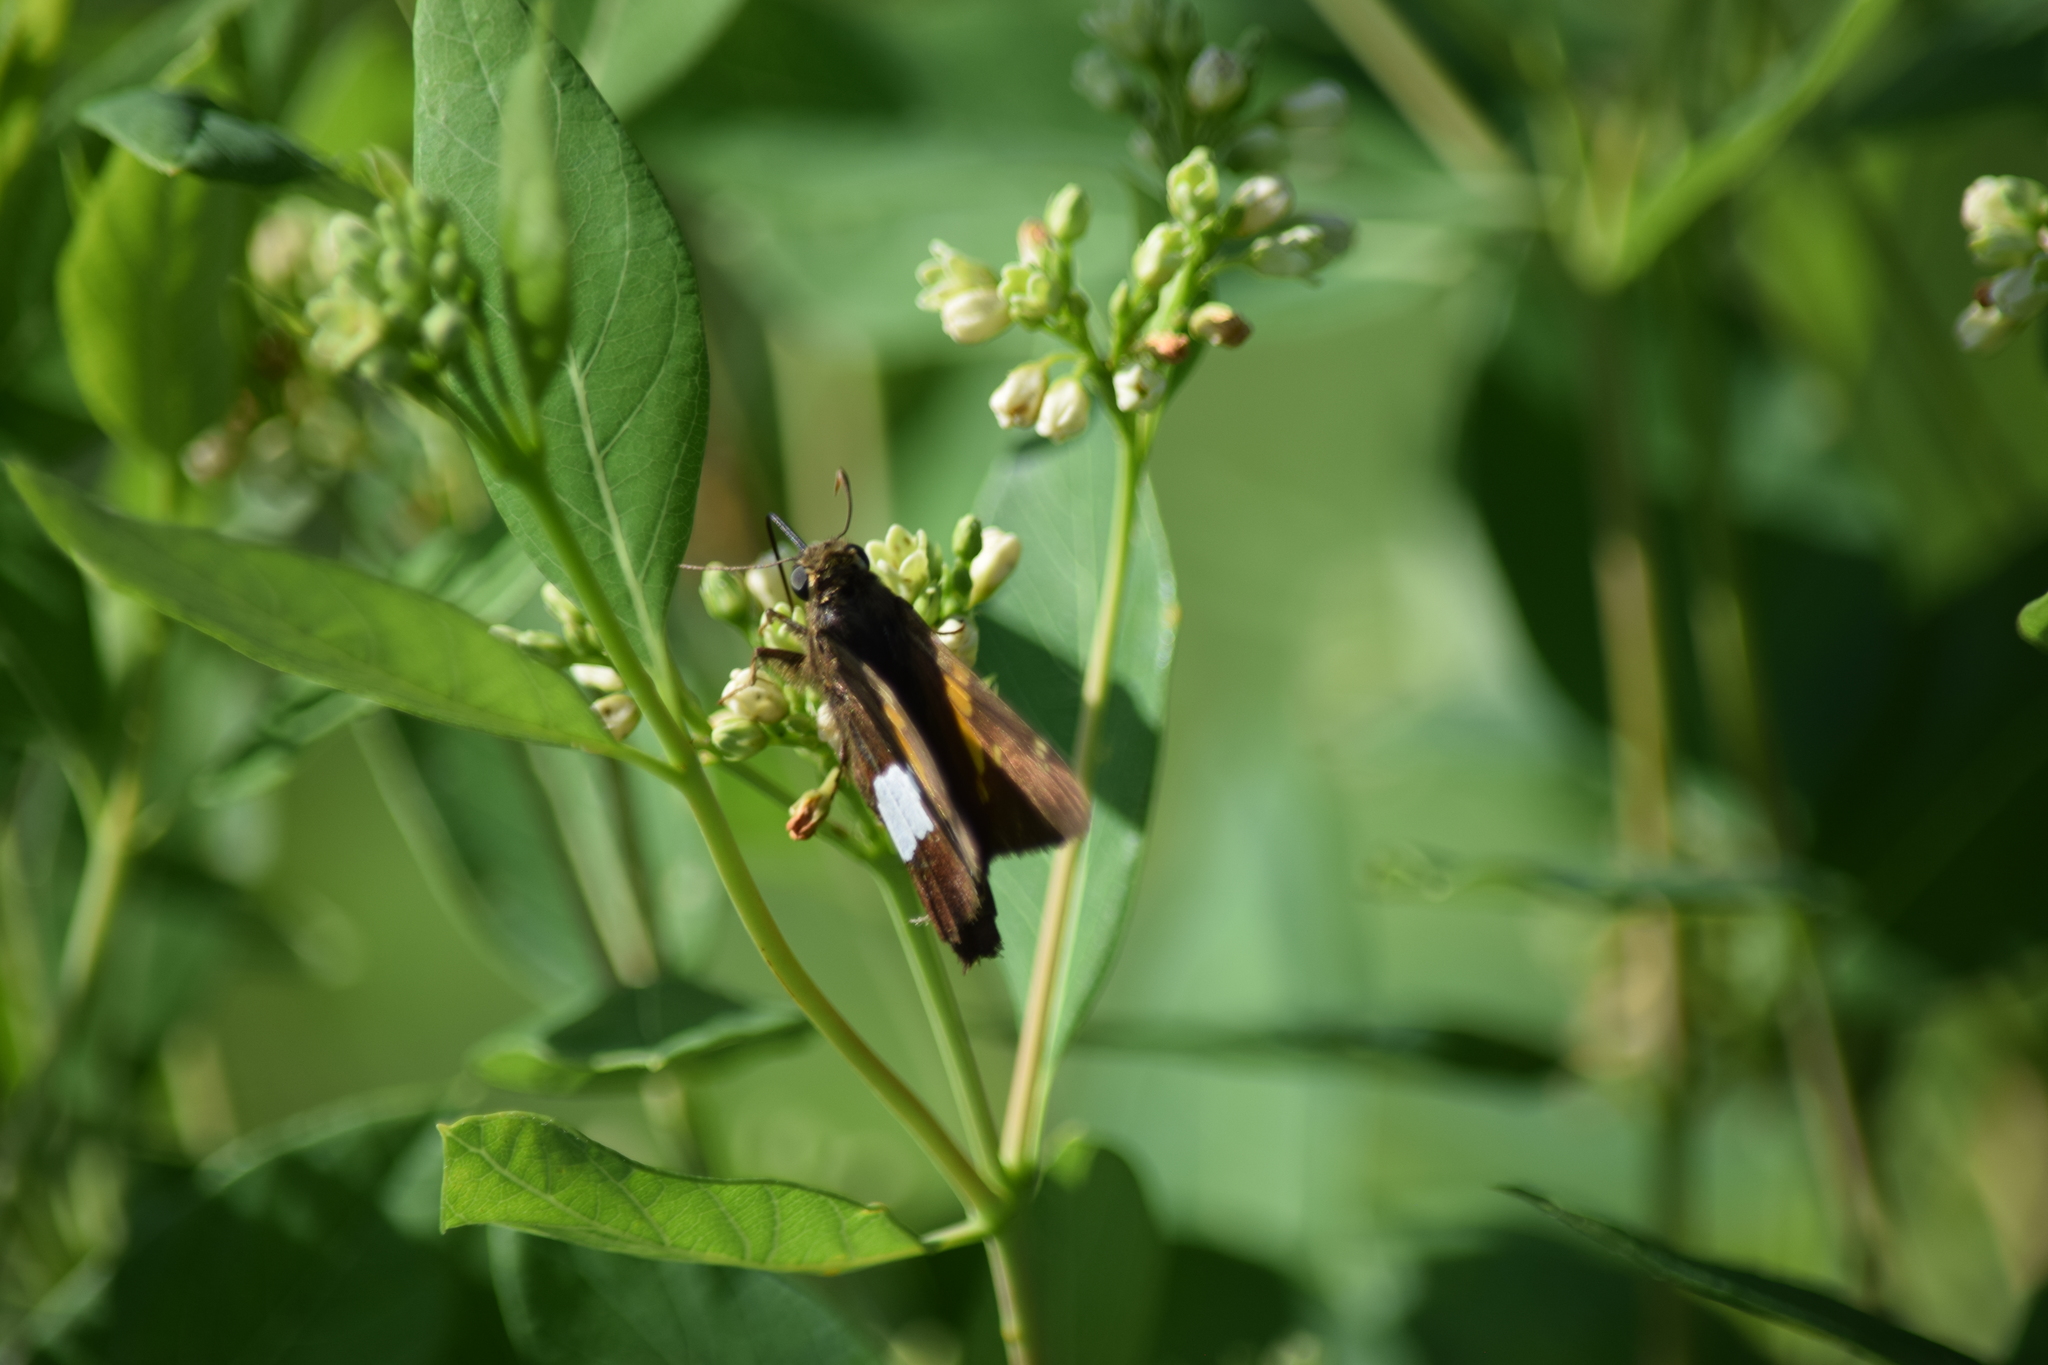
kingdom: Animalia
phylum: Arthropoda
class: Insecta
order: Lepidoptera
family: Hesperiidae
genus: Epargyreus
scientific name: Epargyreus clarus
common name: Silver-spotted skipper
